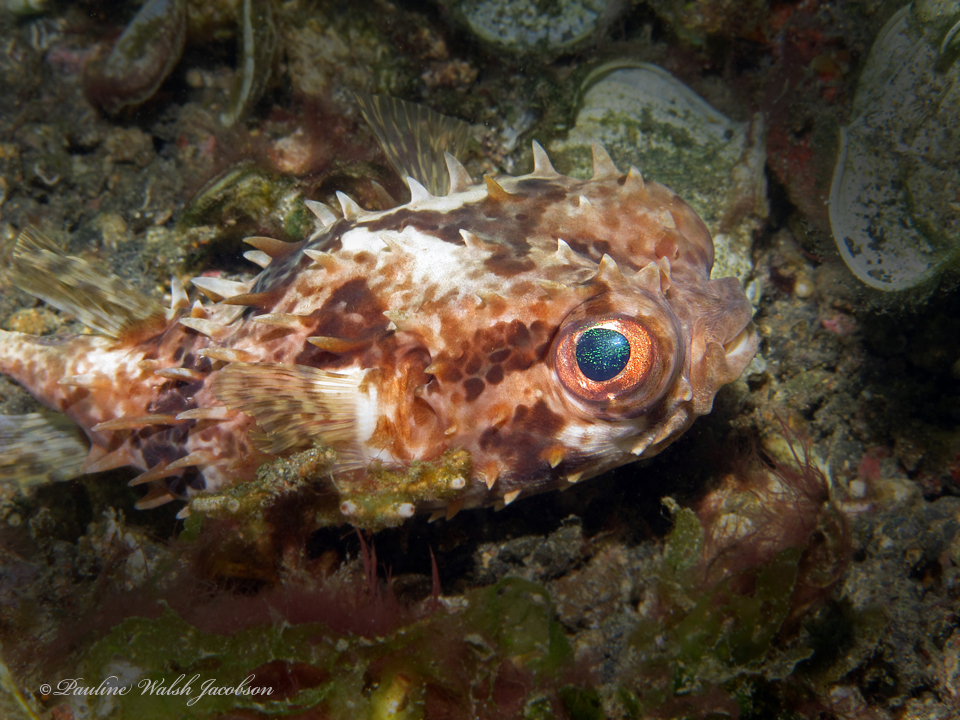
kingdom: Animalia
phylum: Chordata
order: Tetraodontiformes
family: Diodontidae
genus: Cyclichthys
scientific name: Cyclichthys orbicularis
